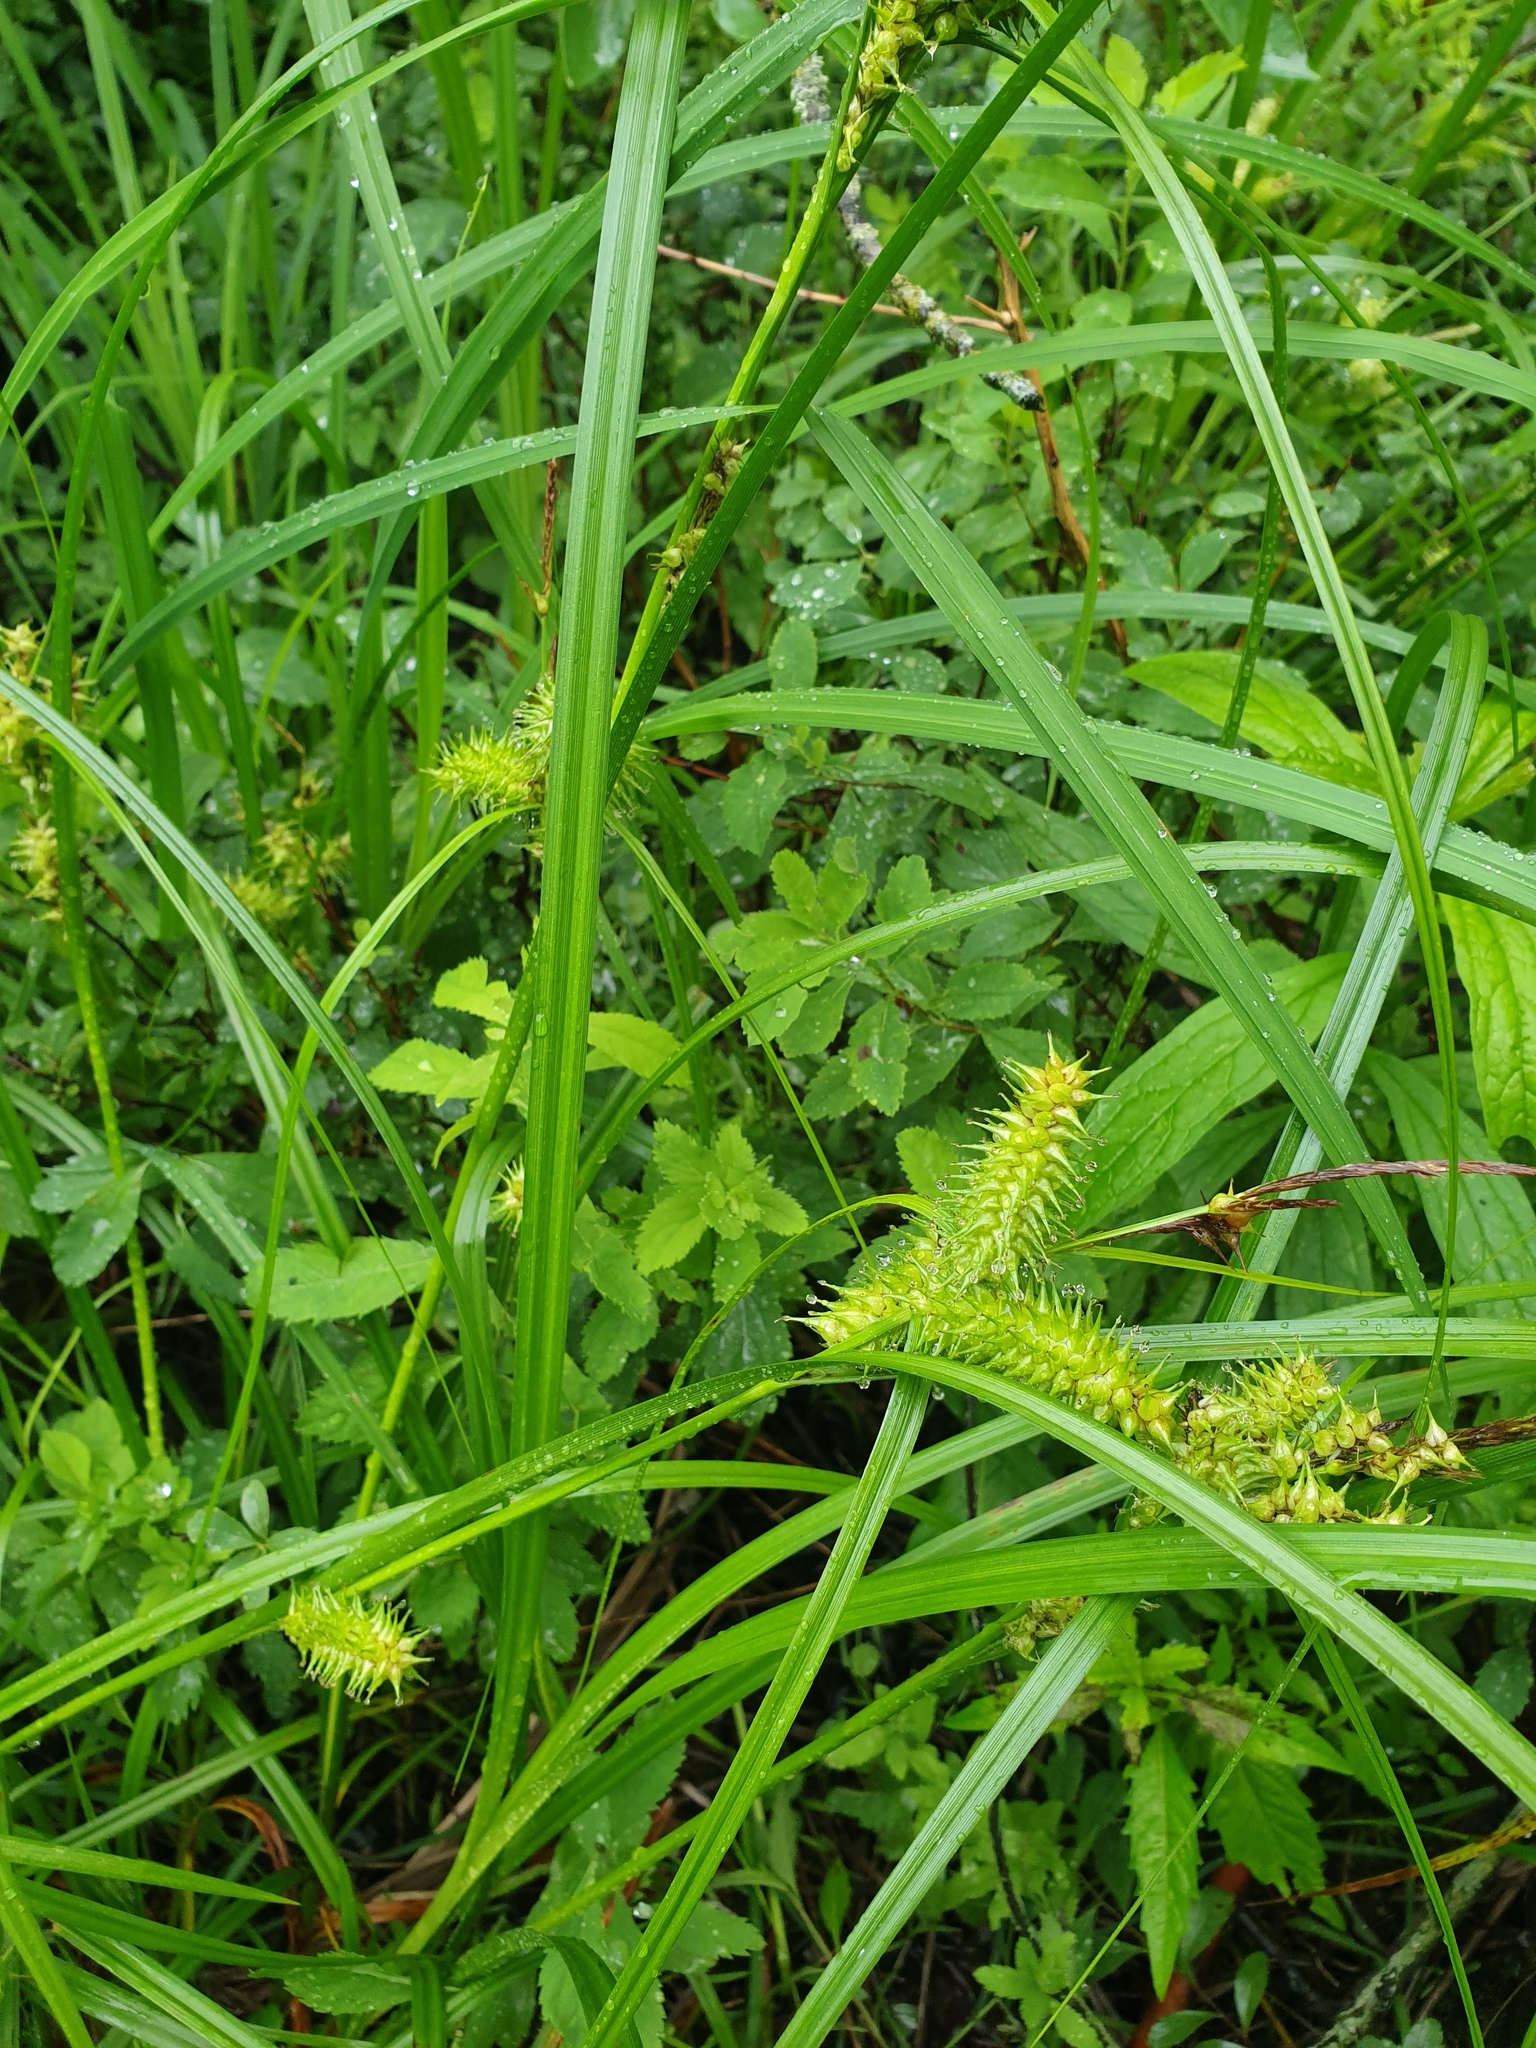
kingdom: Plantae
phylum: Tracheophyta
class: Liliopsida
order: Poales
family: Cyperaceae
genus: Carex
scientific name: Carex retrorsa
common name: Knot-sheath sedge
